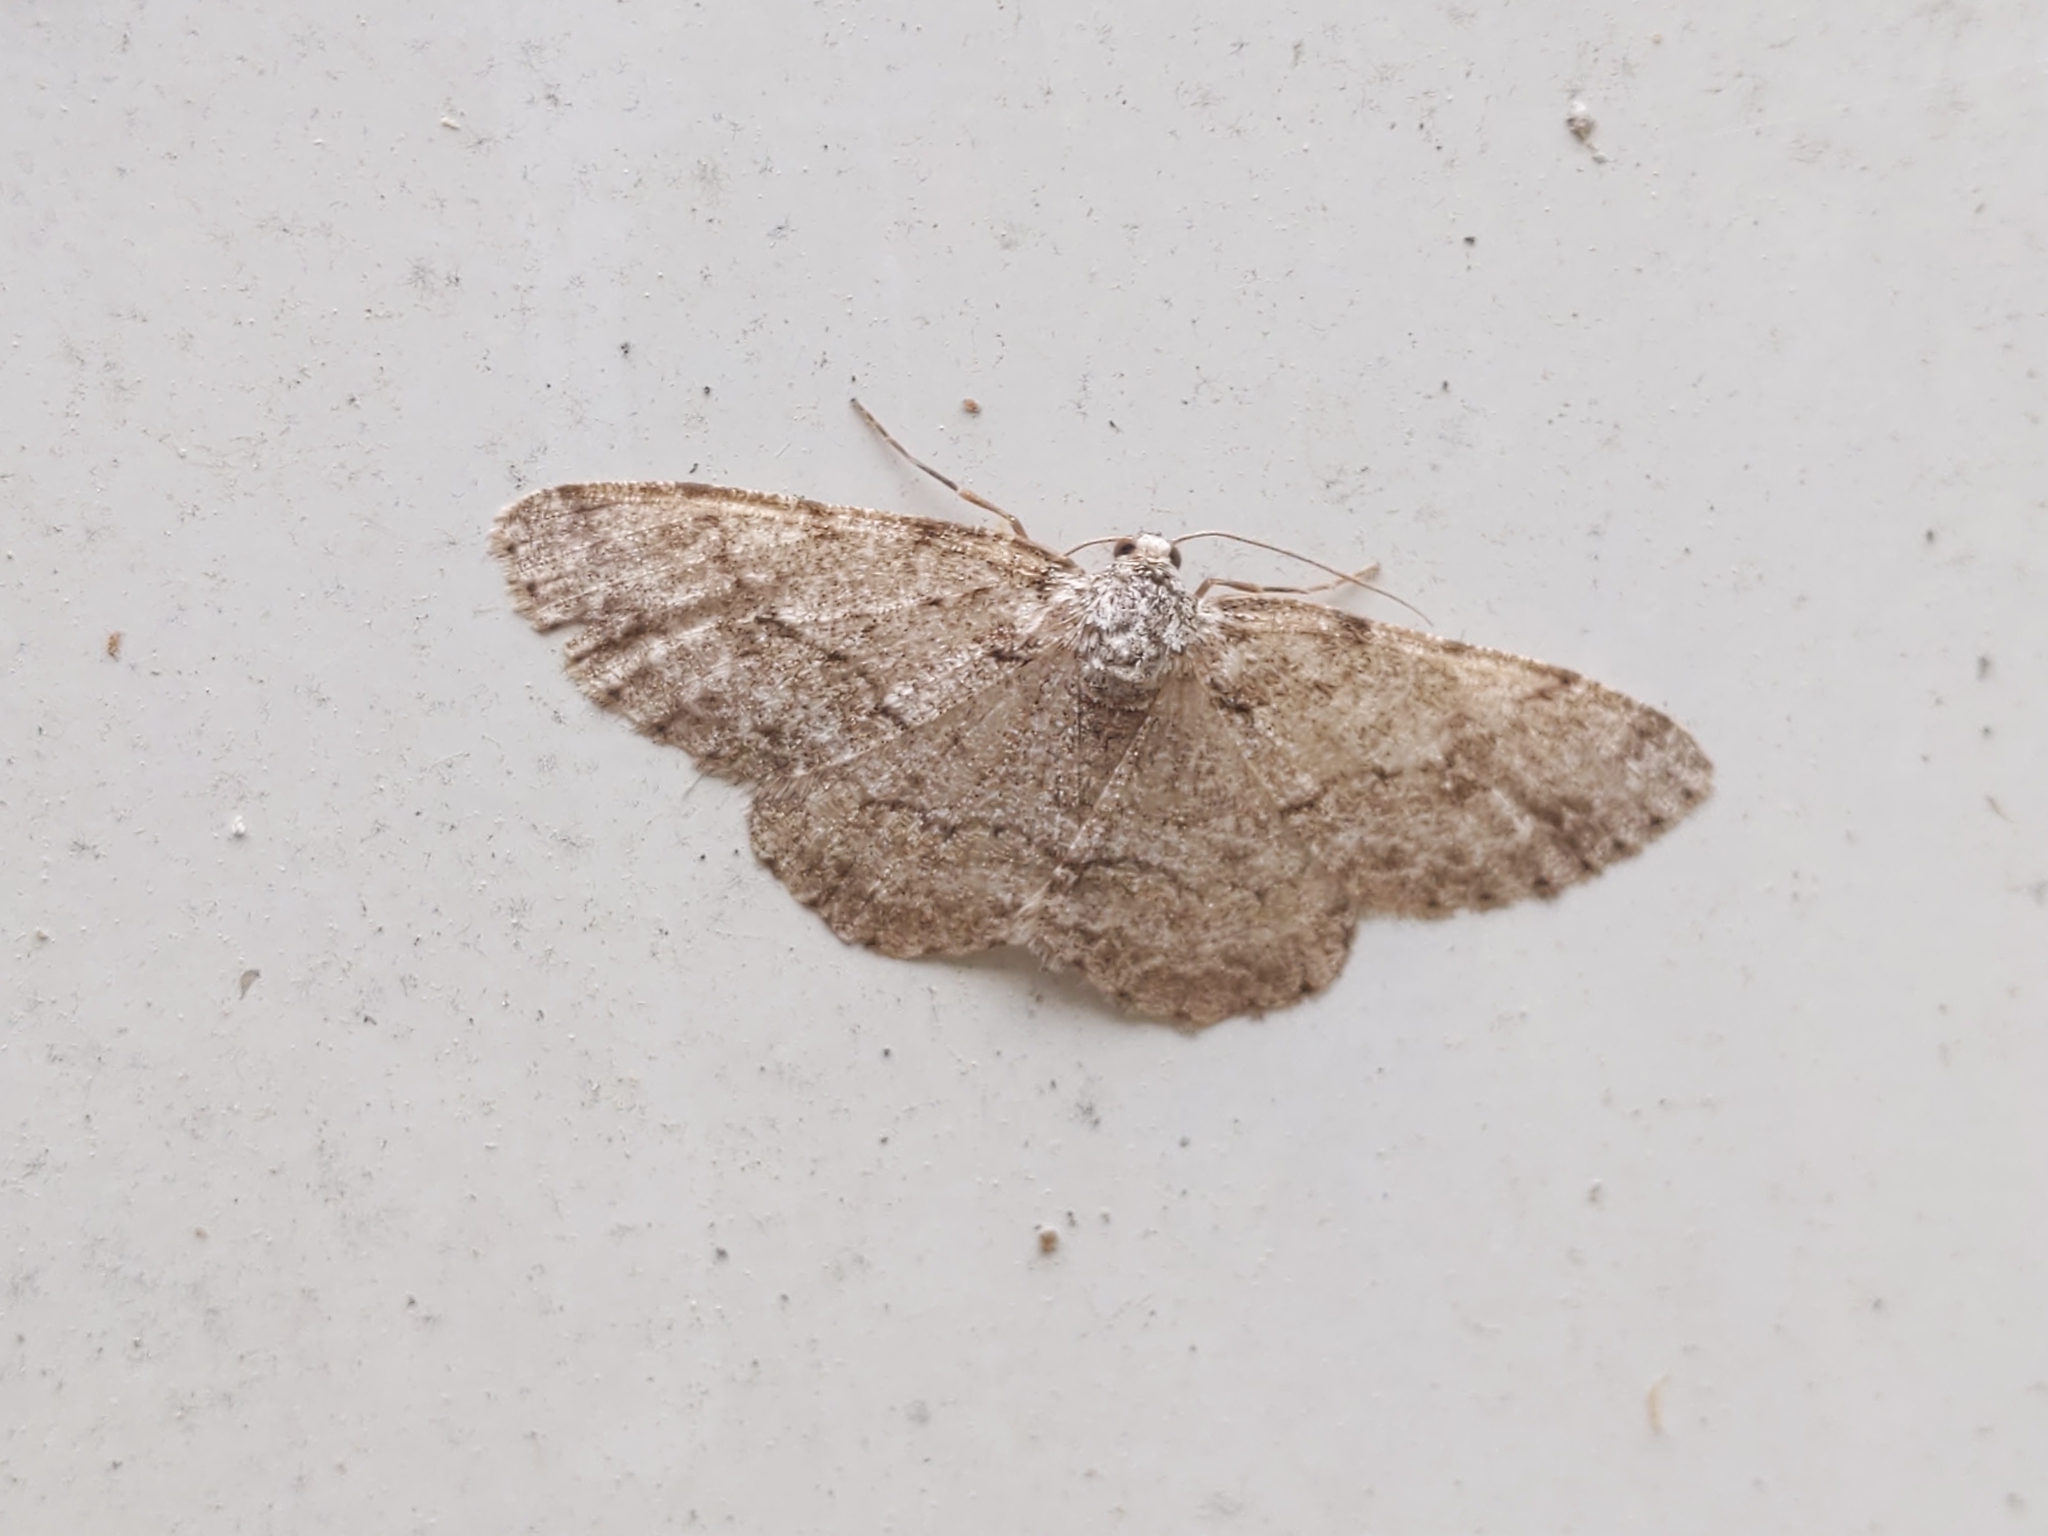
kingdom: Animalia
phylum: Arthropoda
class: Insecta
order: Lepidoptera
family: Geometridae
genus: Ectropis
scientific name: Ectropis crepuscularia
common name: Engrailed
